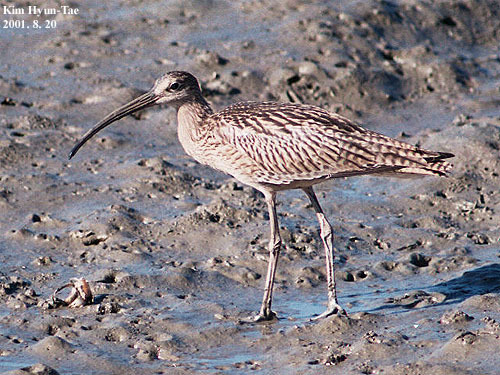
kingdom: Animalia
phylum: Chordata
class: Aves
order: Charadriiformes
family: Scolopacidae
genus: Numenius
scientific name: Numenius madagascariensis
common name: Far eastern curlew
